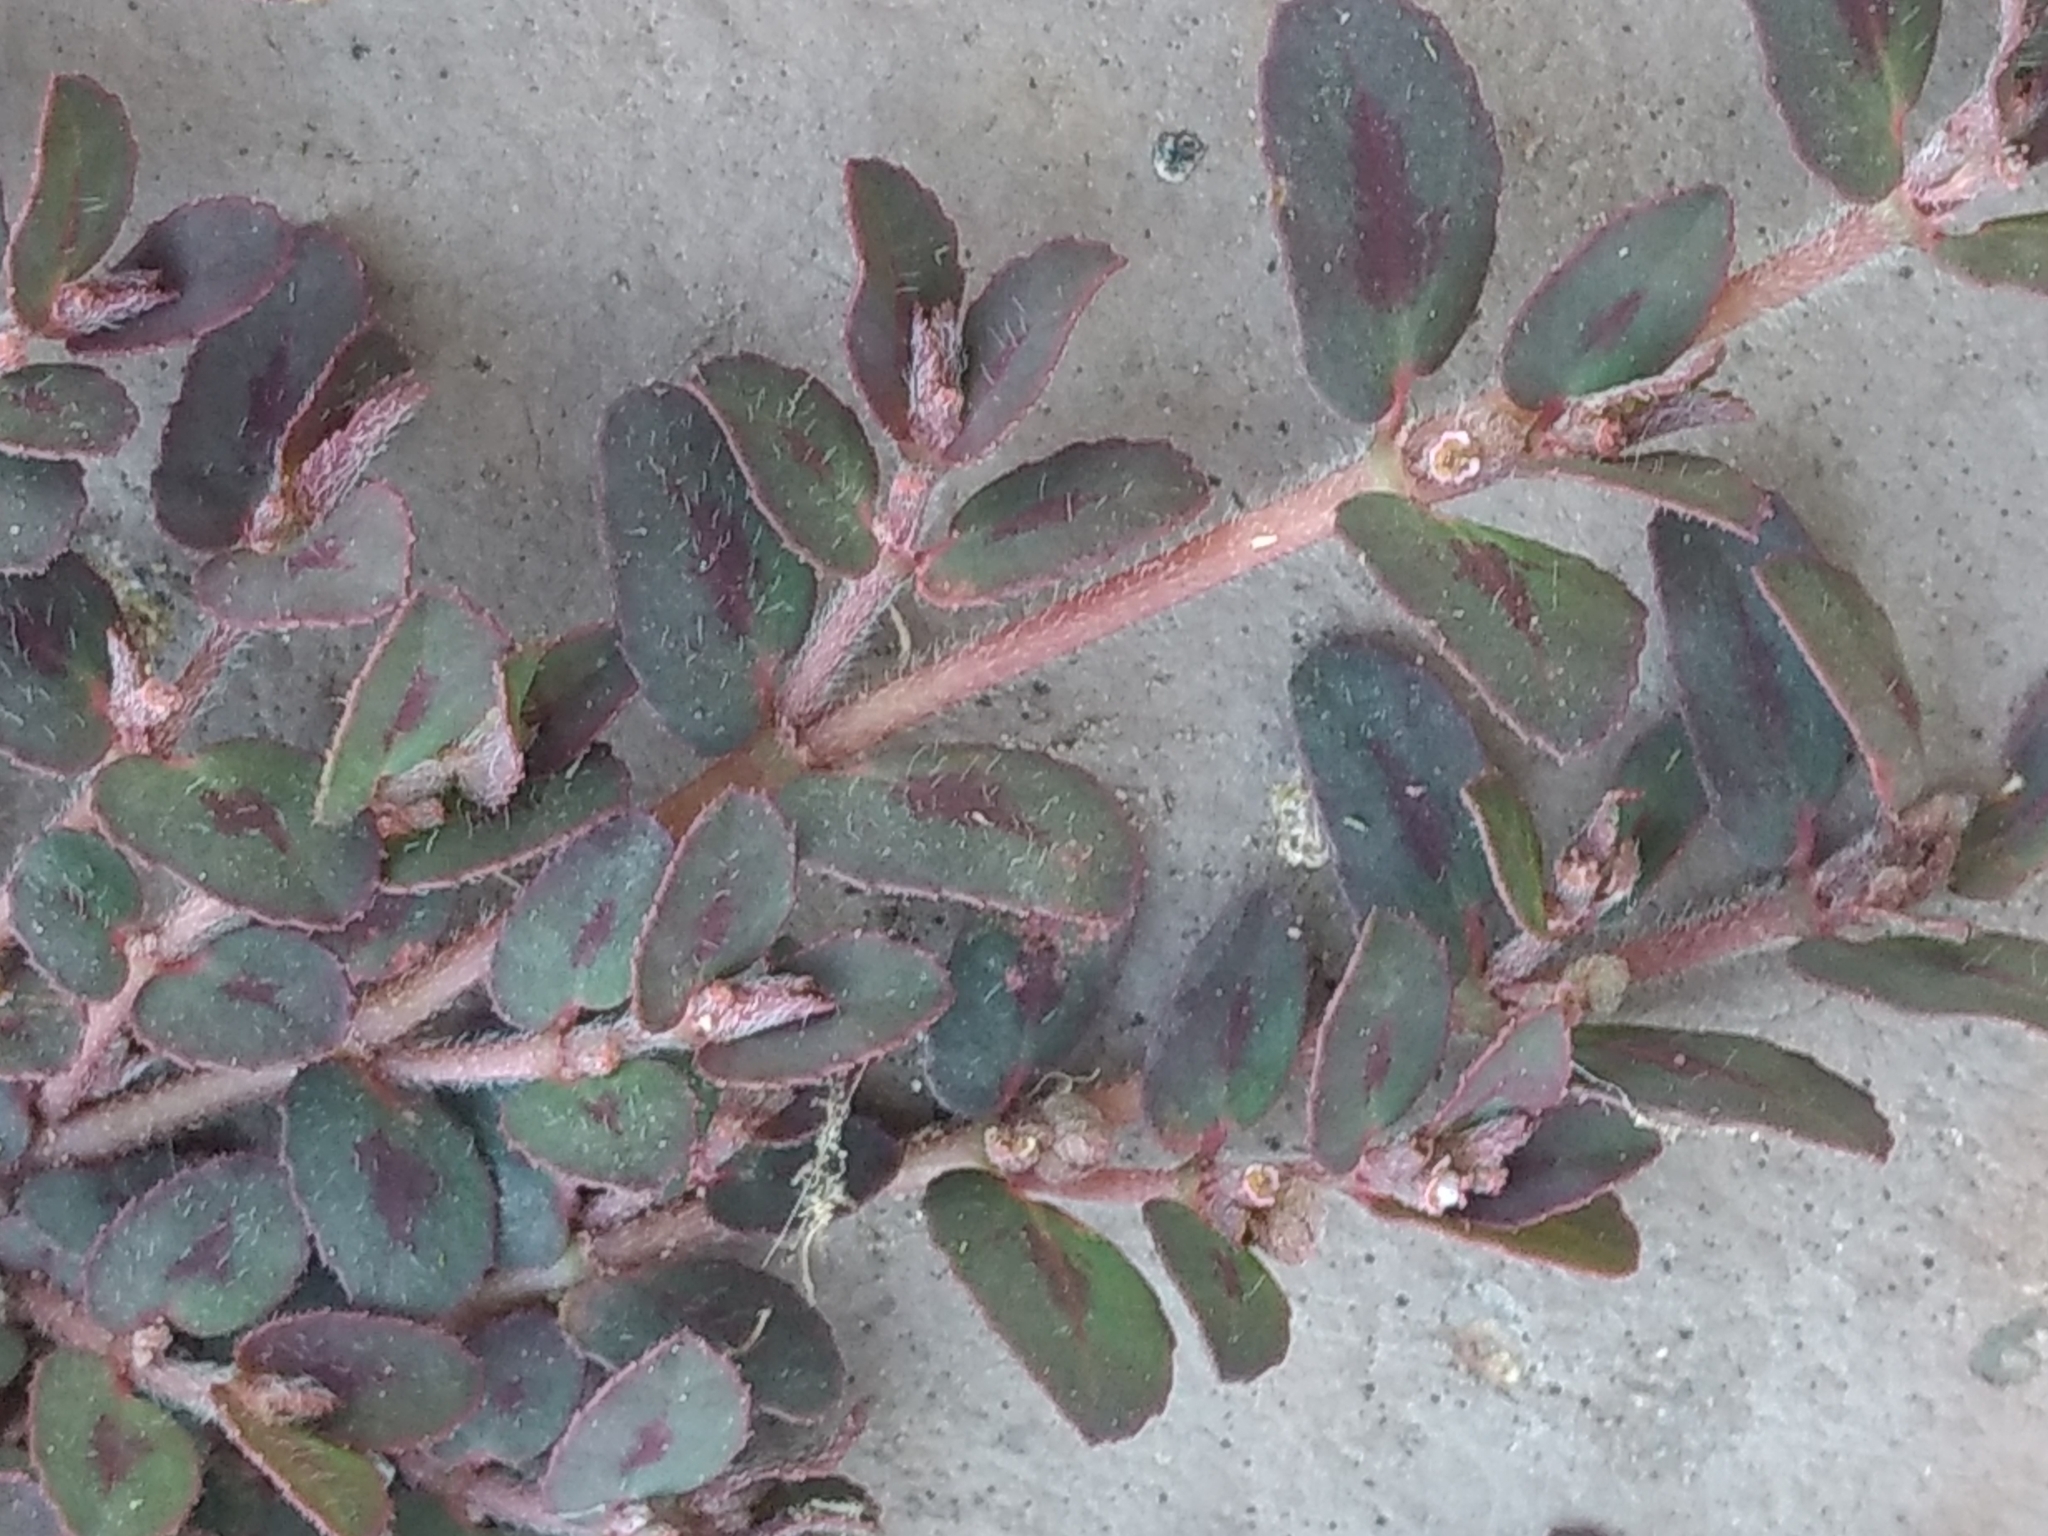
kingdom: Plantae
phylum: Tracheophyta
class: Magnoliopsida
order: Malpighiales
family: Euphorbiaceae
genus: Euphorbia
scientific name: Euphorbia maculata
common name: Spotted spurge
